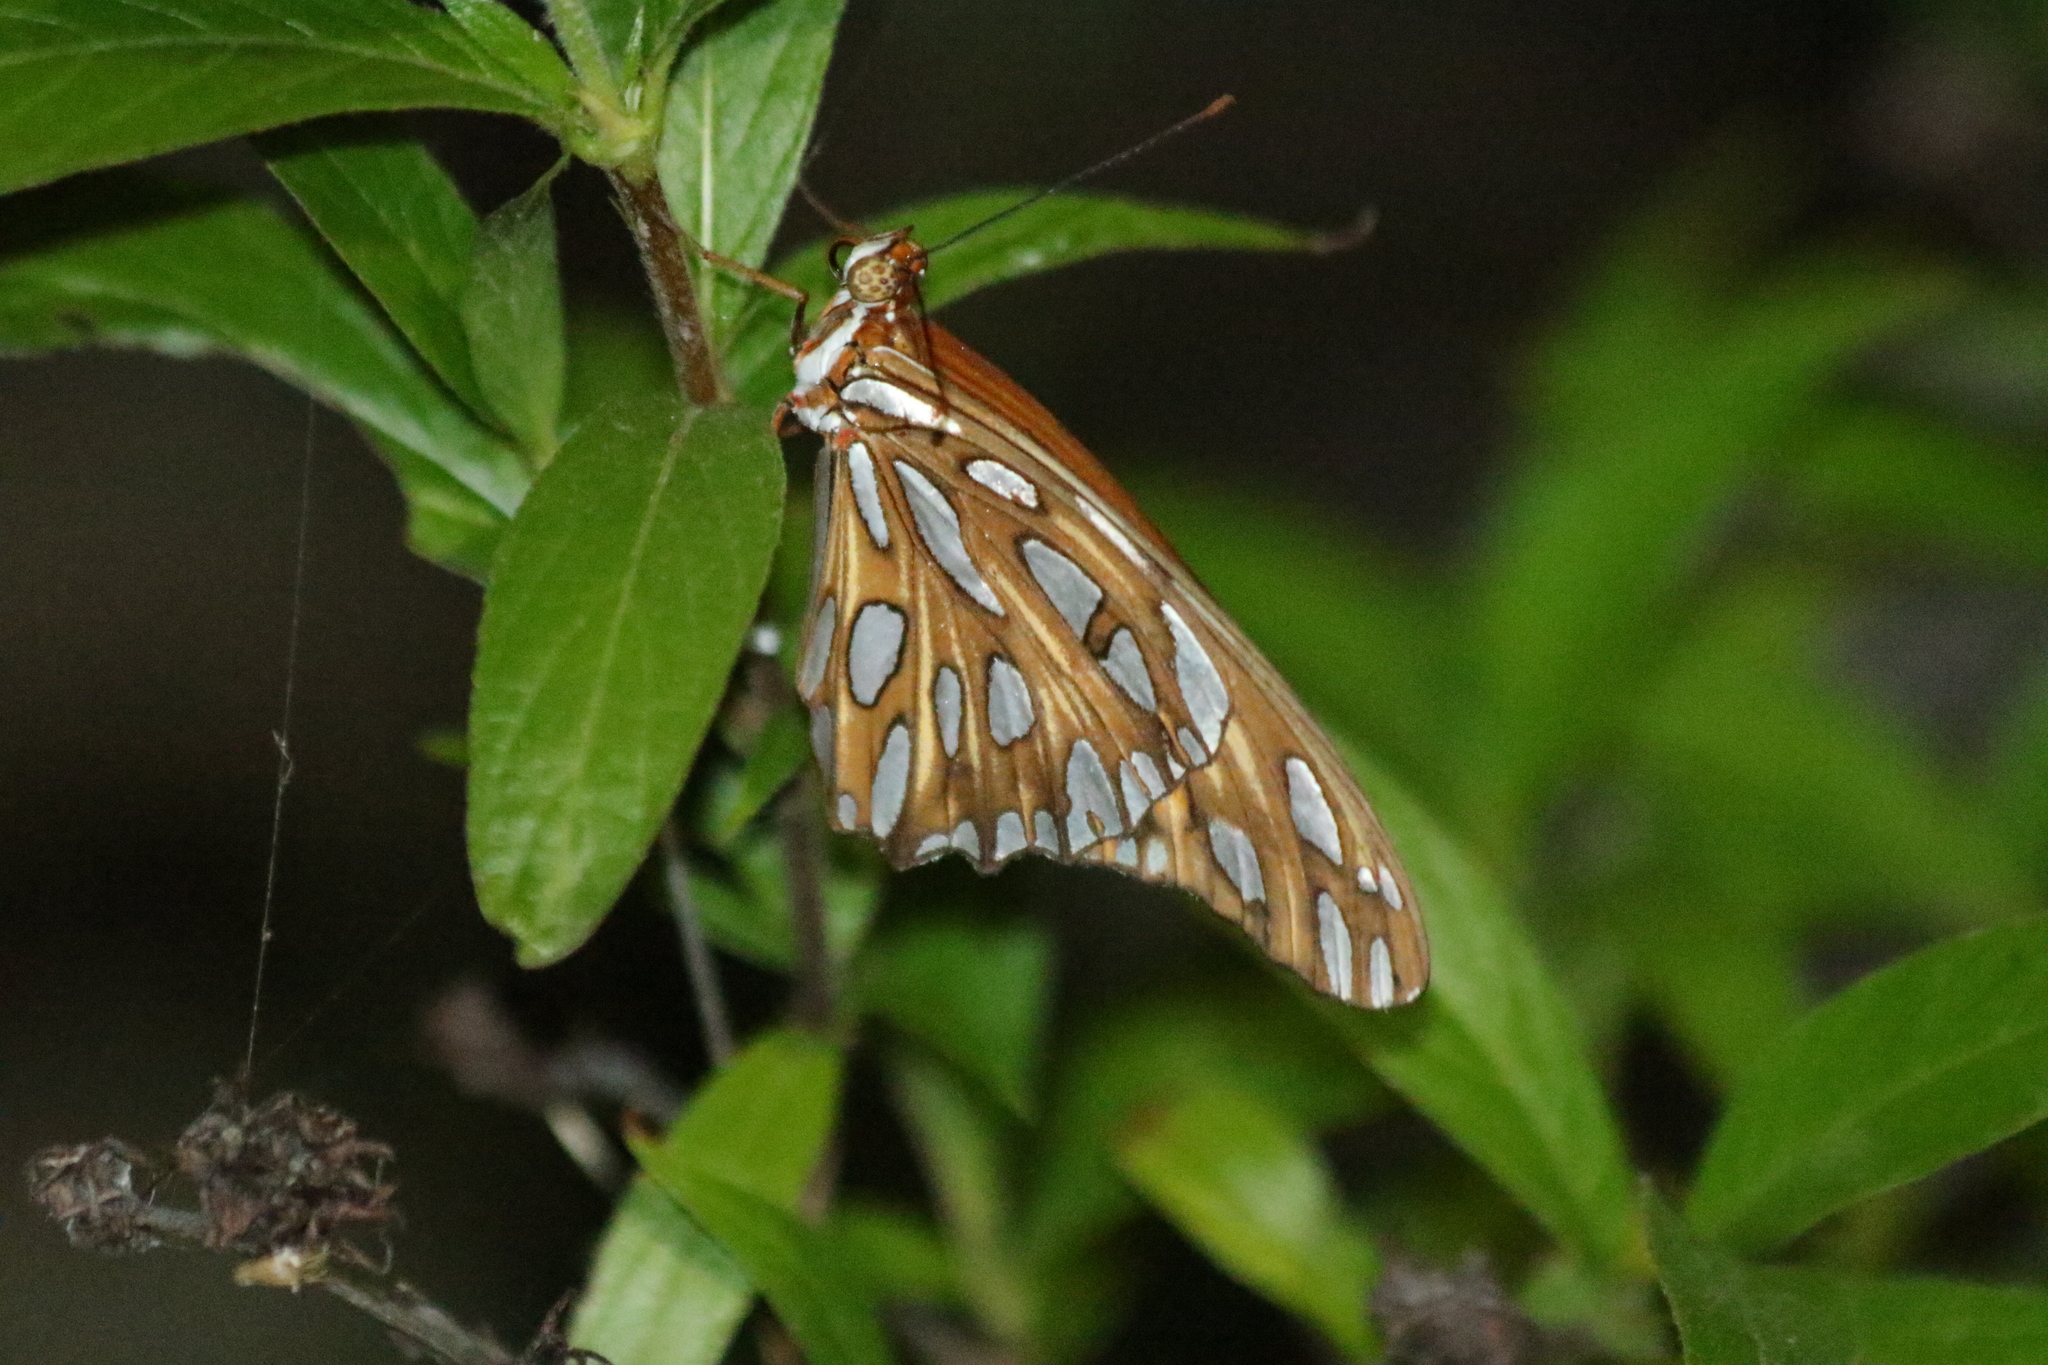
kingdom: Animalia
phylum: Arthropoda
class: Insecta
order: Lepidoptera
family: Nymphalidae
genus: Dione
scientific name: Dione vanillae
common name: Gulf fritillary
